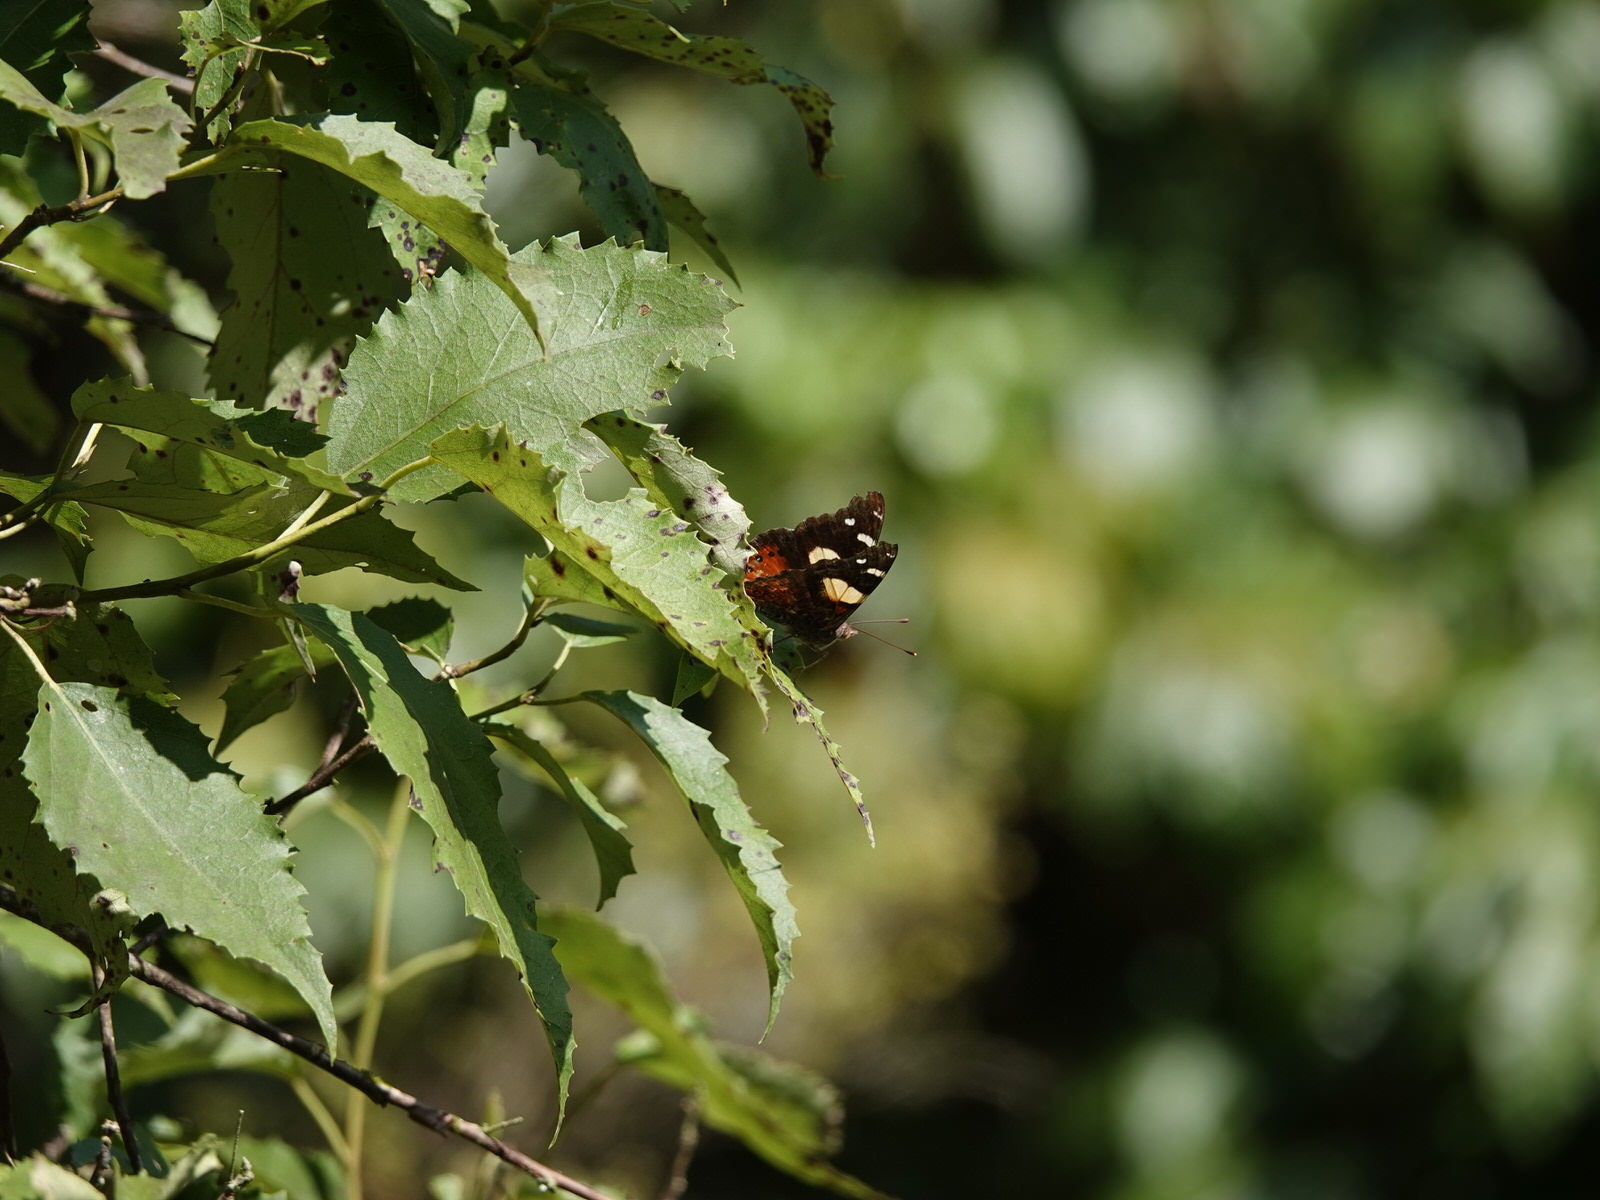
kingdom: Animalia
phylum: Arthropoda
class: Insecta
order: Lepidoptera
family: Nymphalidae
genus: Vanessa
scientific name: Vanessa itea
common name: Yellow admiral
